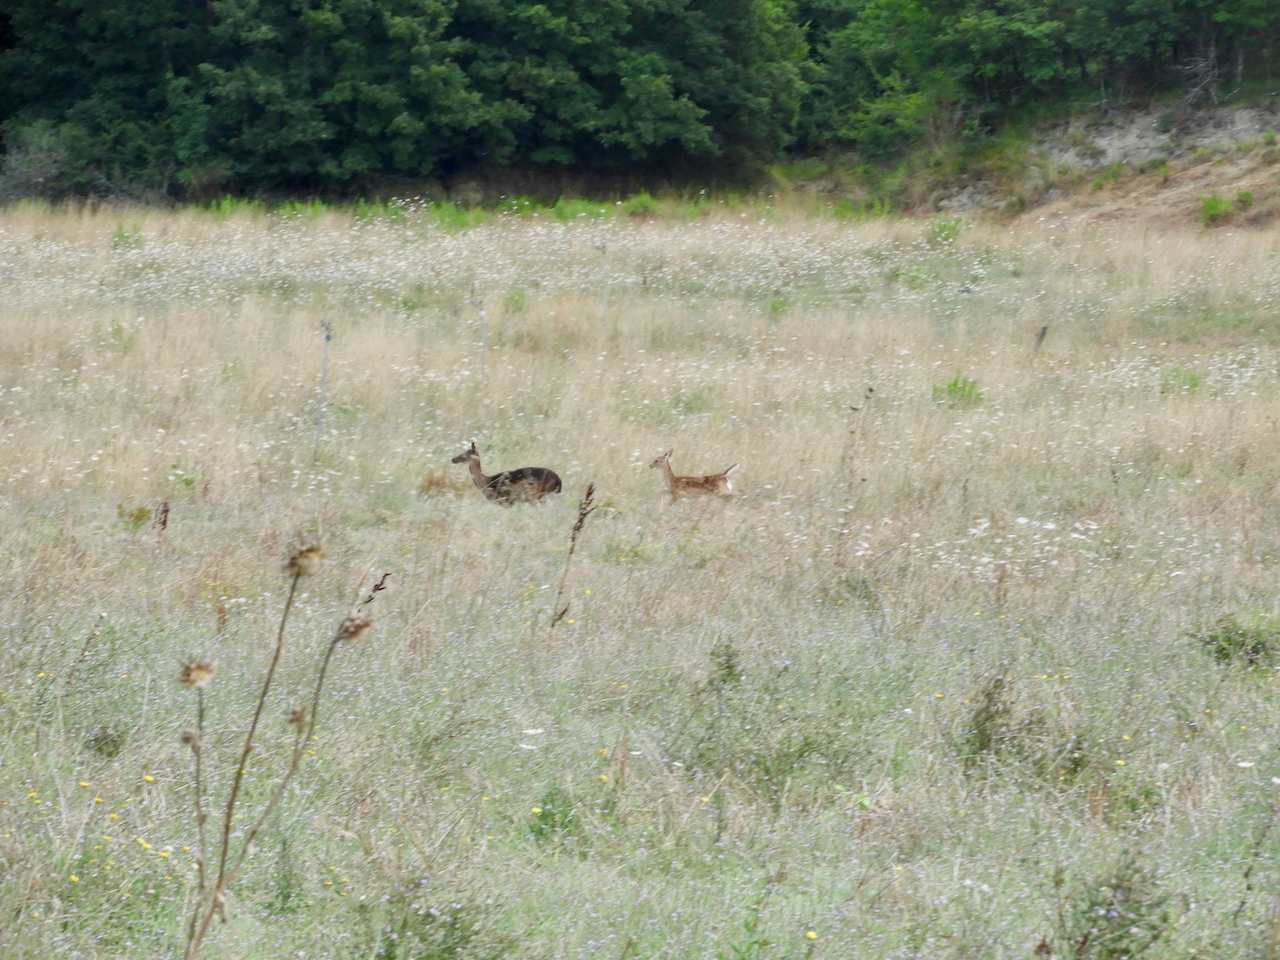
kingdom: Animalia
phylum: Chordata
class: Mammalia
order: Artiodactyla
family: Cervidae
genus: Dama
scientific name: Dama dama
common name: Fallow deer
